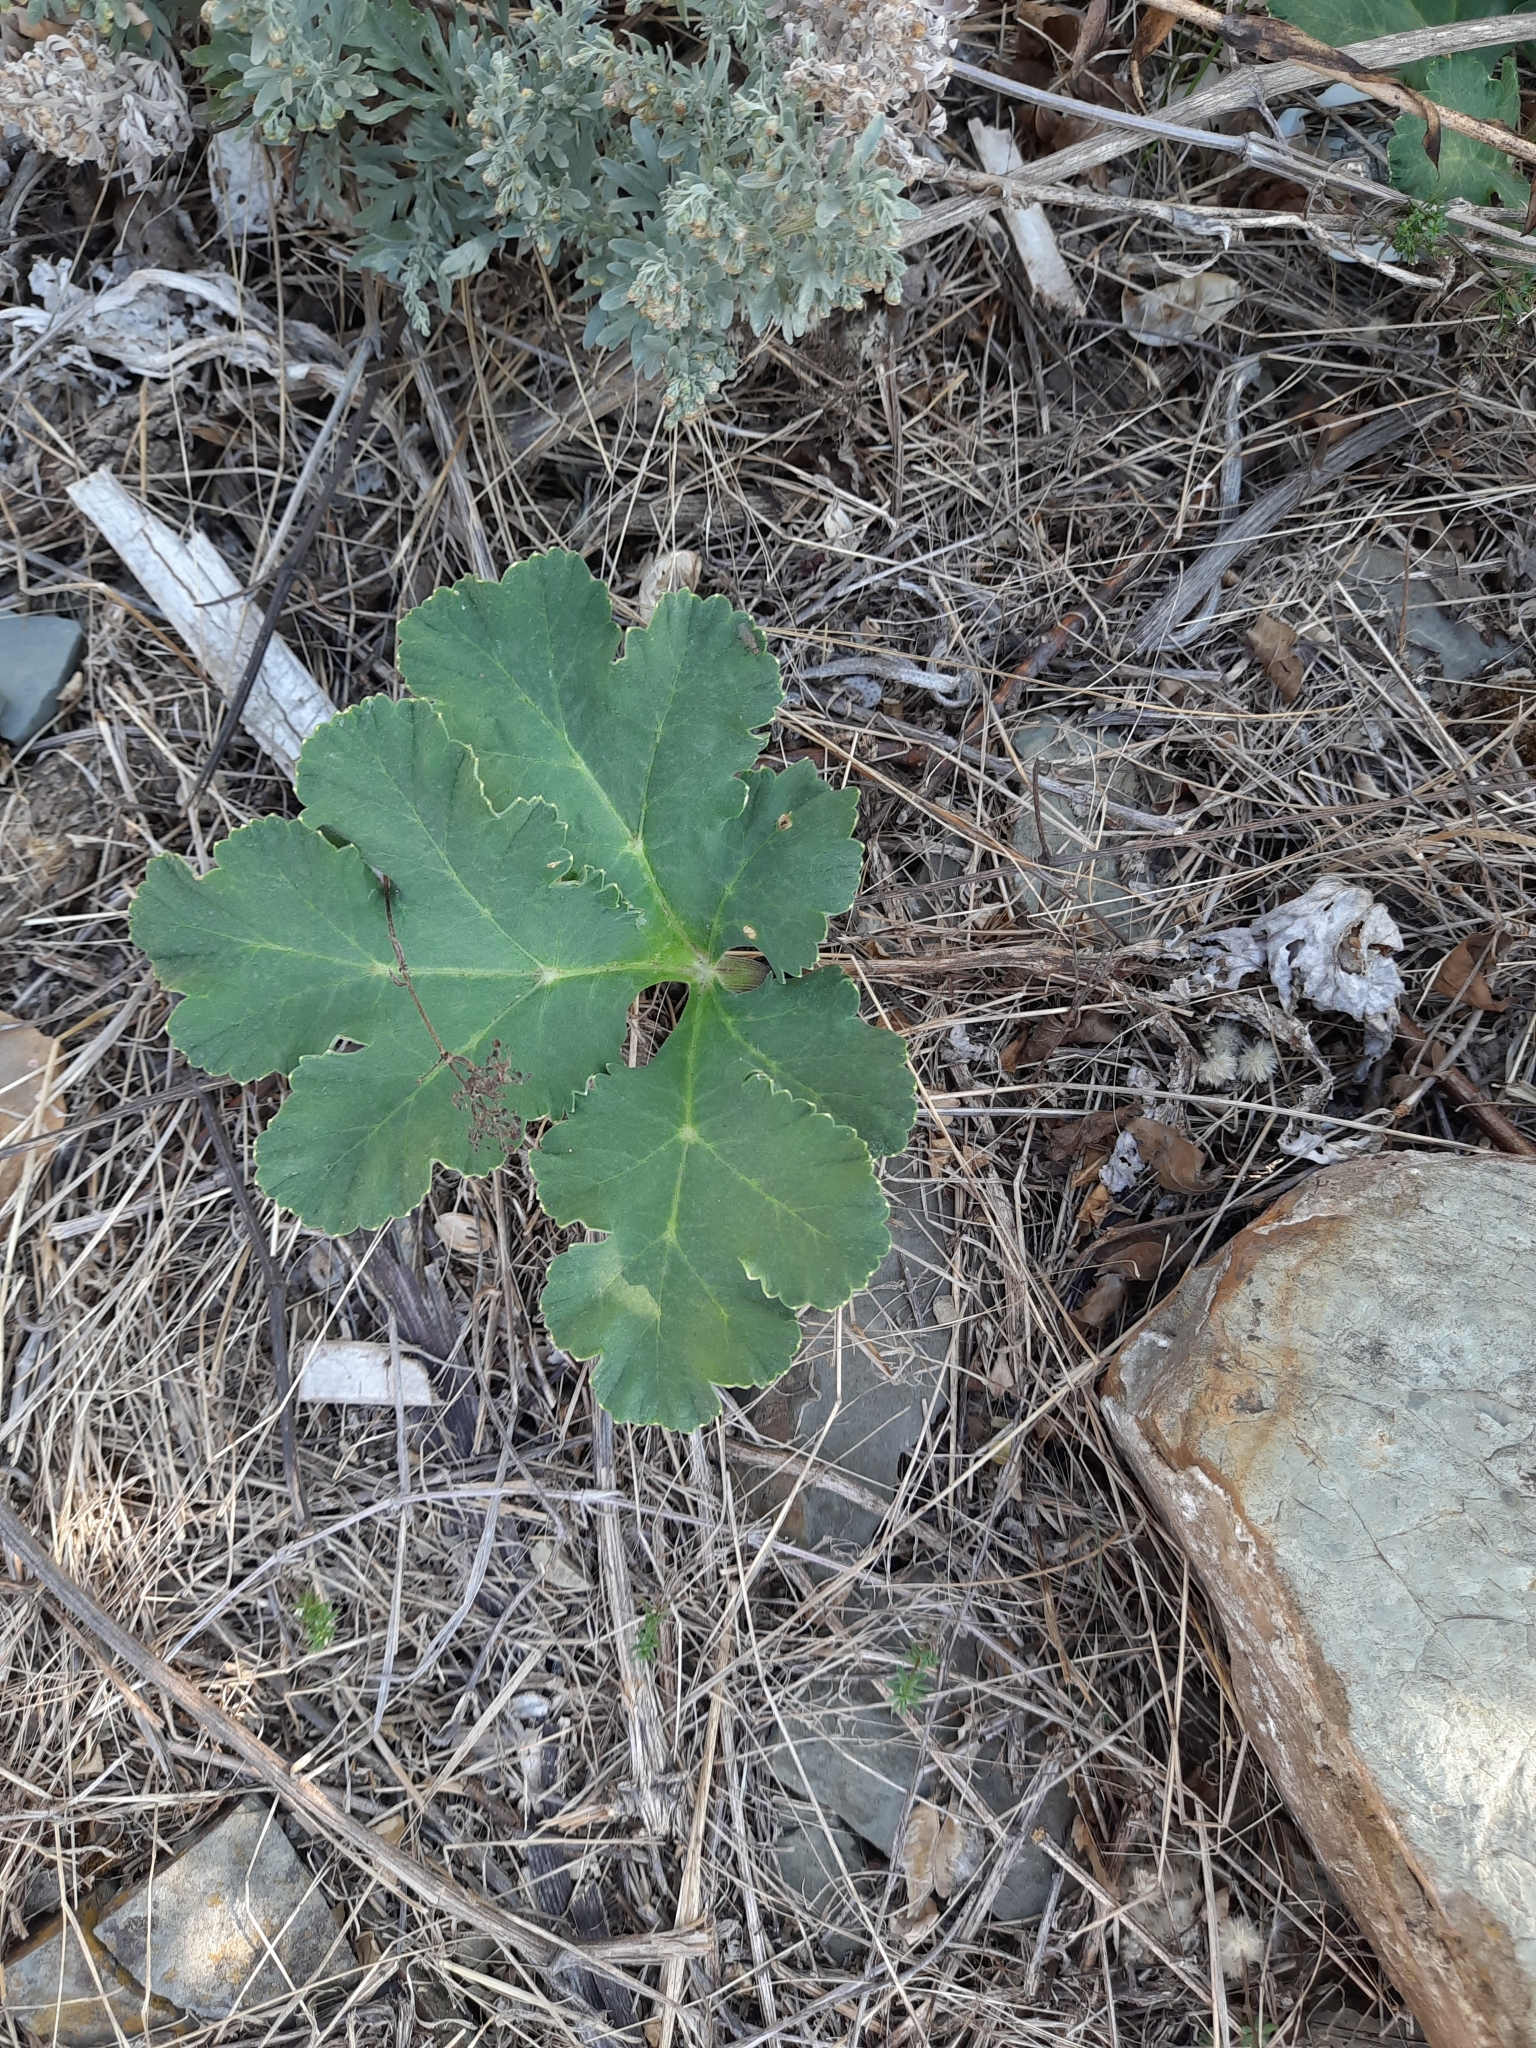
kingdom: Plantae
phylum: Tracheophyta
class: Magnoliopsida
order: Apiales
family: Apiaceae
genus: Heracleum
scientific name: Heracleum stevenii
